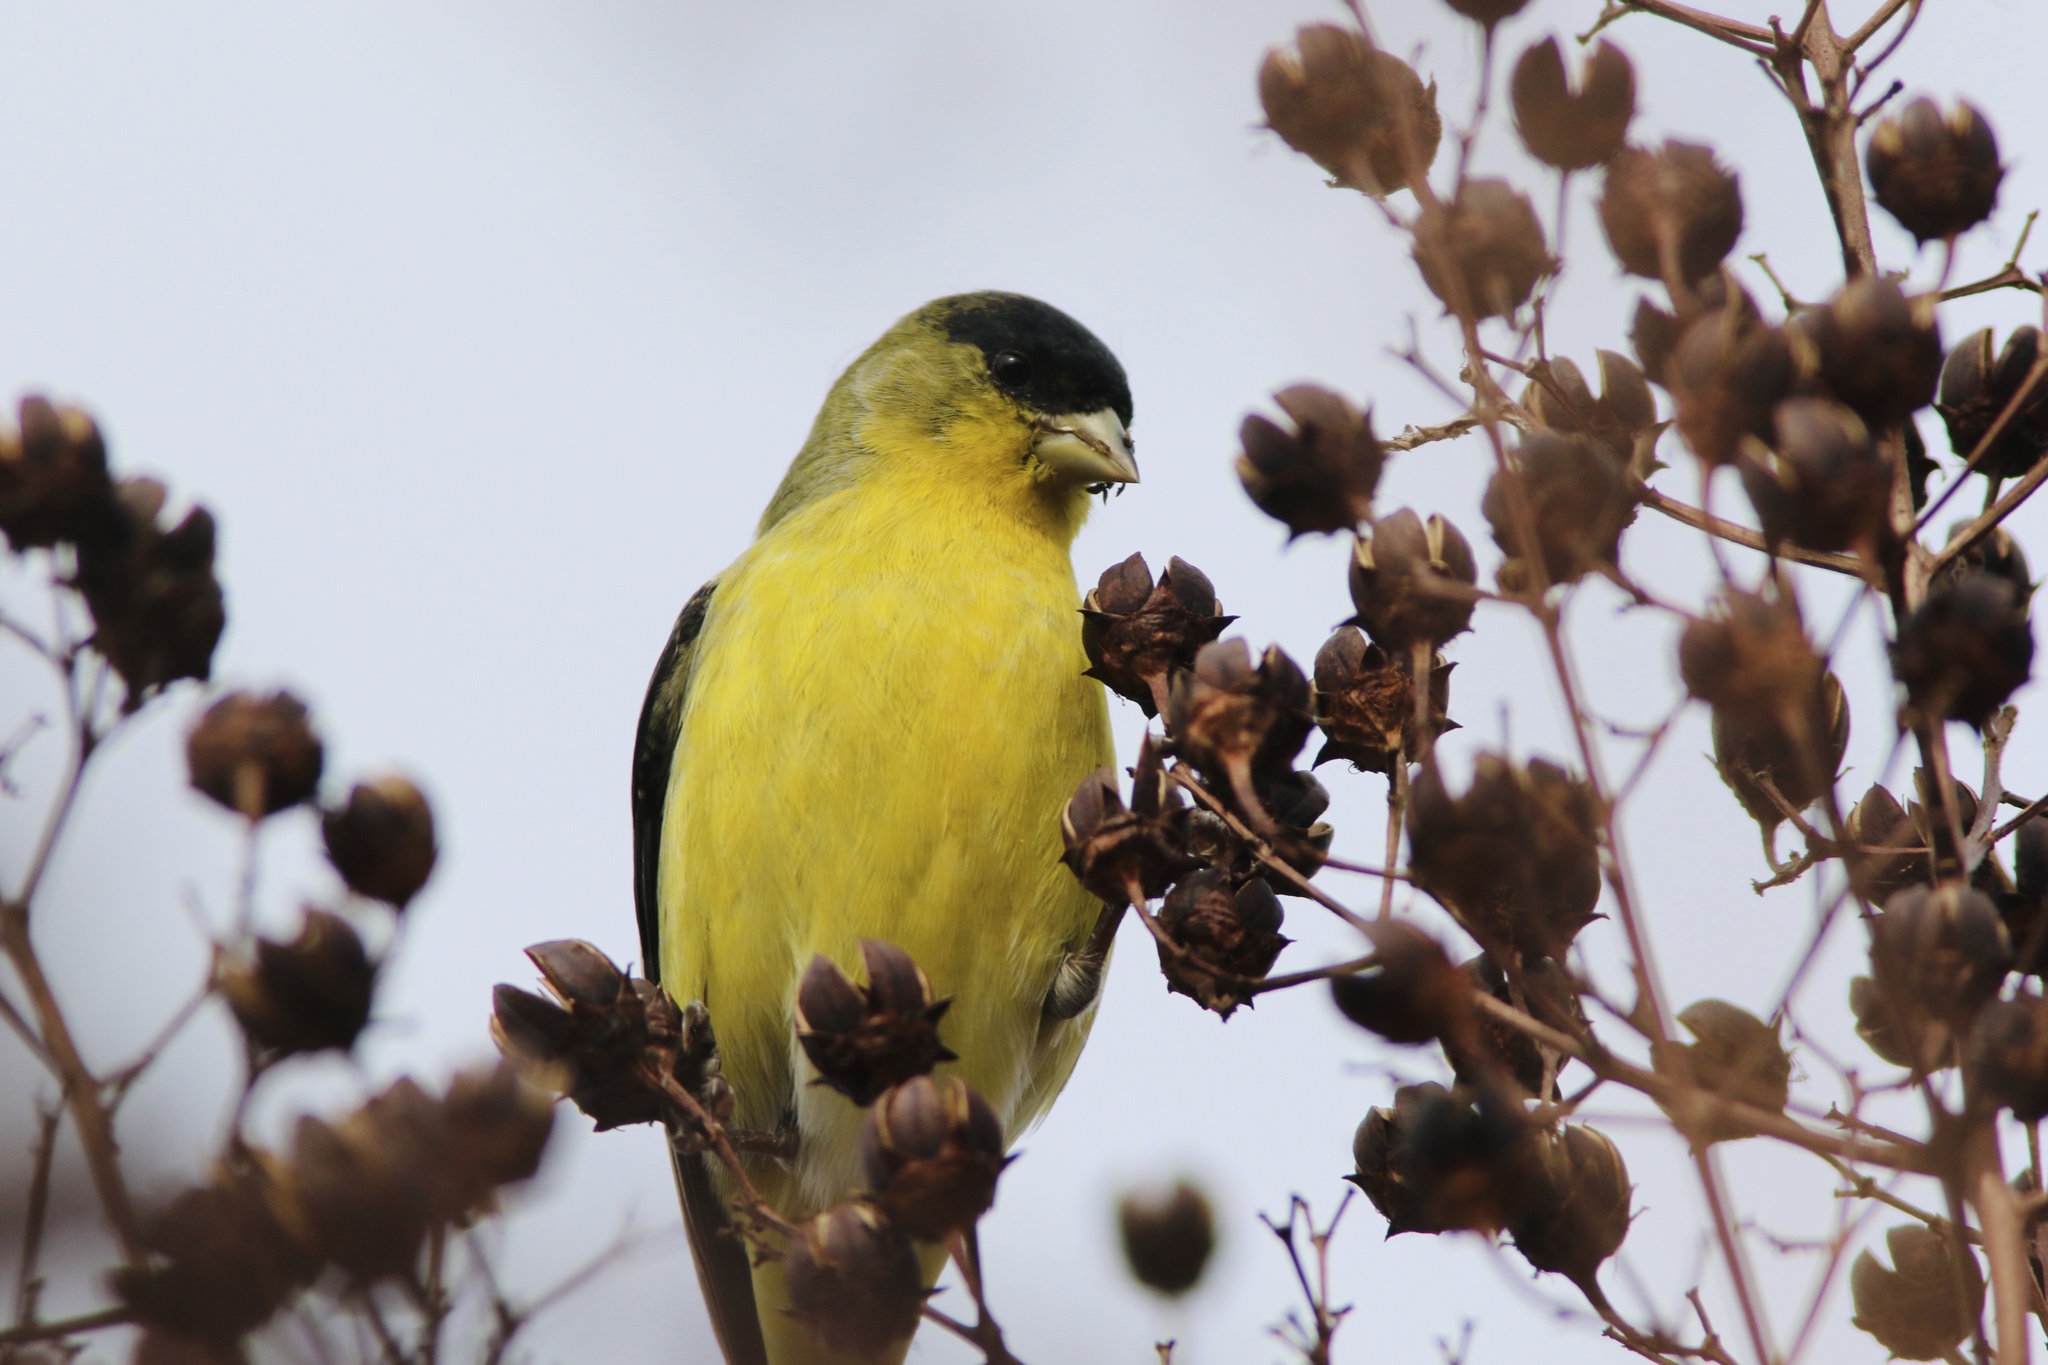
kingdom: Animalia
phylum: Chordata
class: Aves
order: Passeriformes
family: Fringillidae
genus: Spinus
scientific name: Spinus psaltria
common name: Lesser goldfinch
